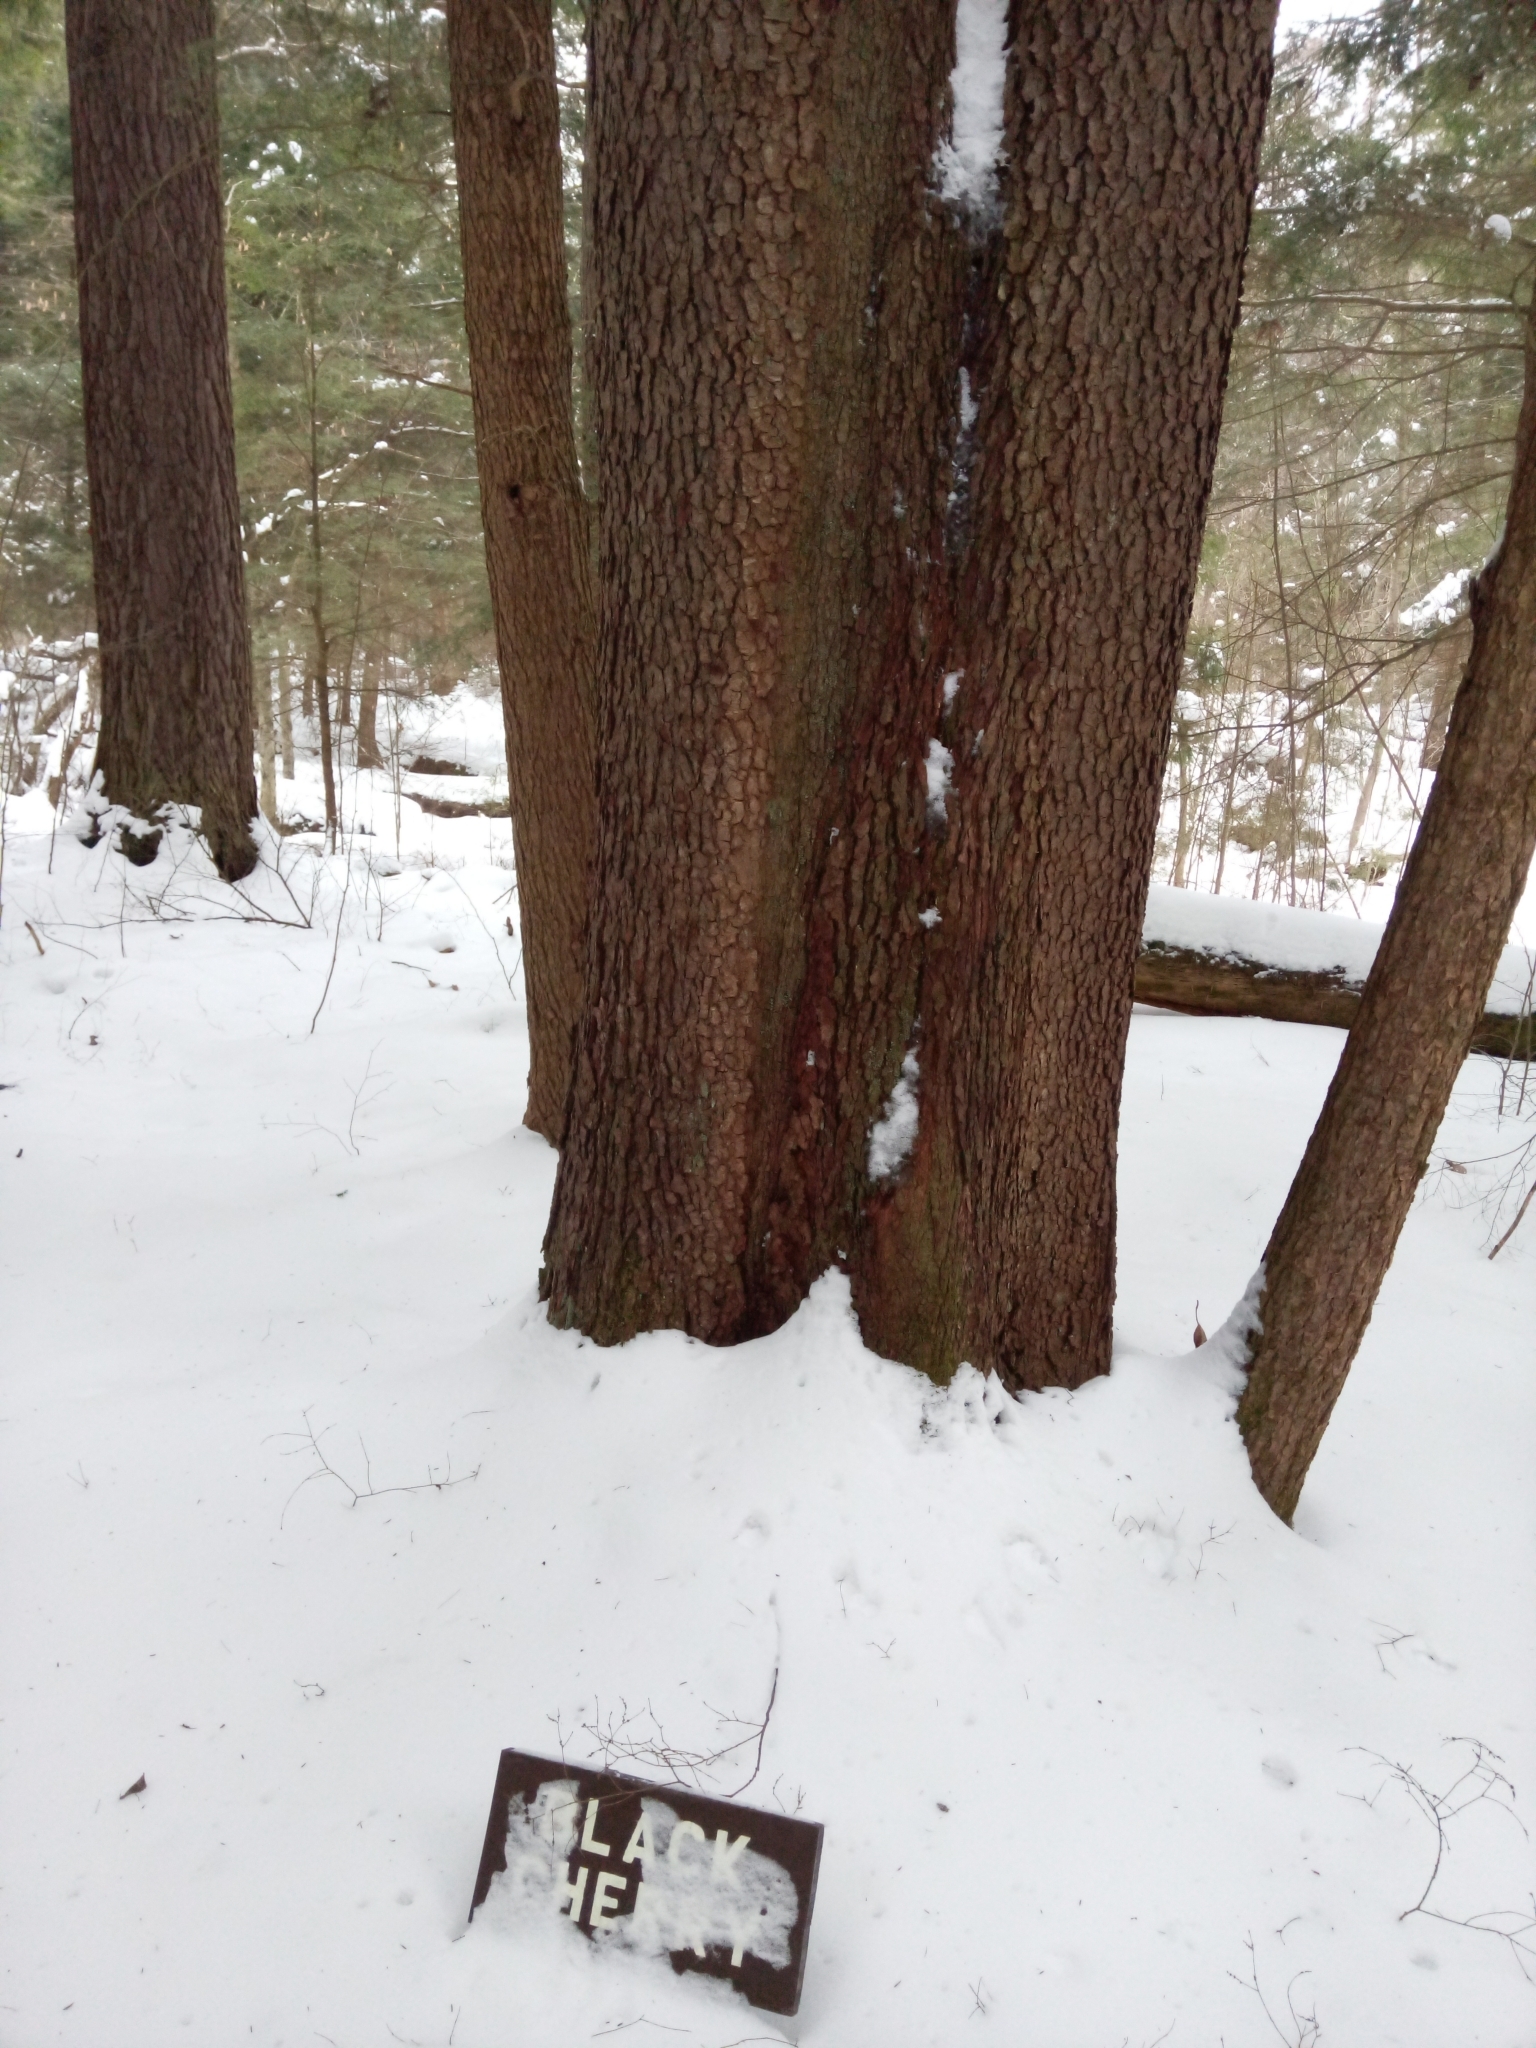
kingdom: Plantae
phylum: Tracheophyta
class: Magnoliopsida
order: Rosales
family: Rosaceae
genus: Prunus
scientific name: Prunus serotina
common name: Black cherry
